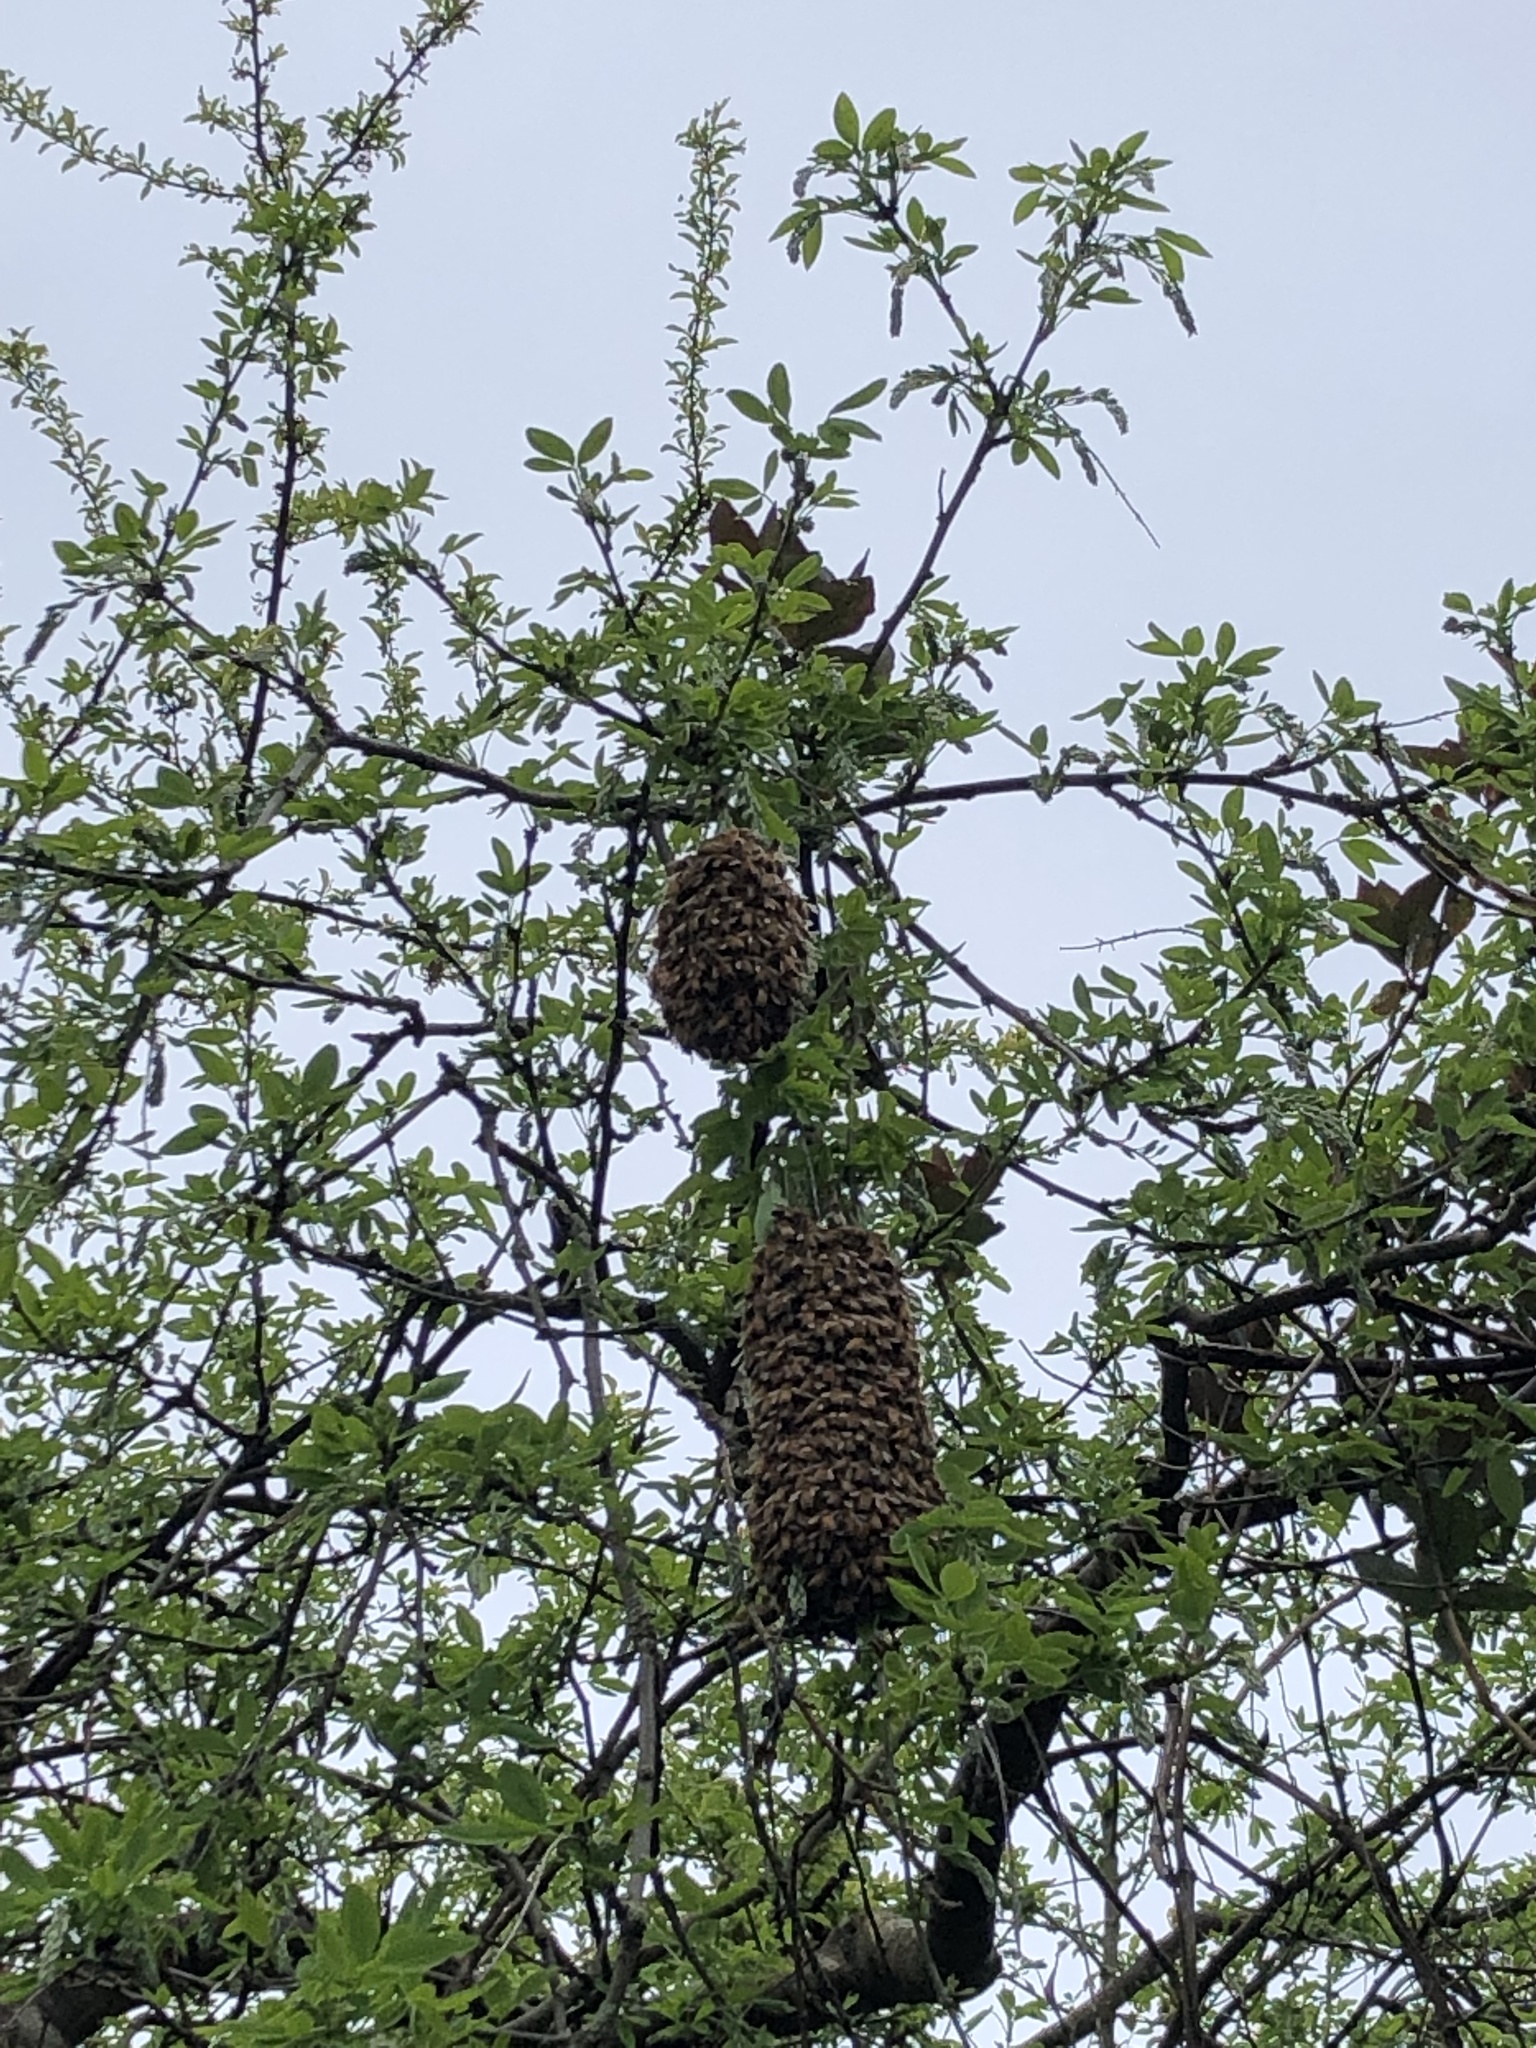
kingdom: Animalia
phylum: Arthropoda
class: Insecta
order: Hymenoptera
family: Apidae
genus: Apis
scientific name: Apis mellifera
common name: Honey bee
